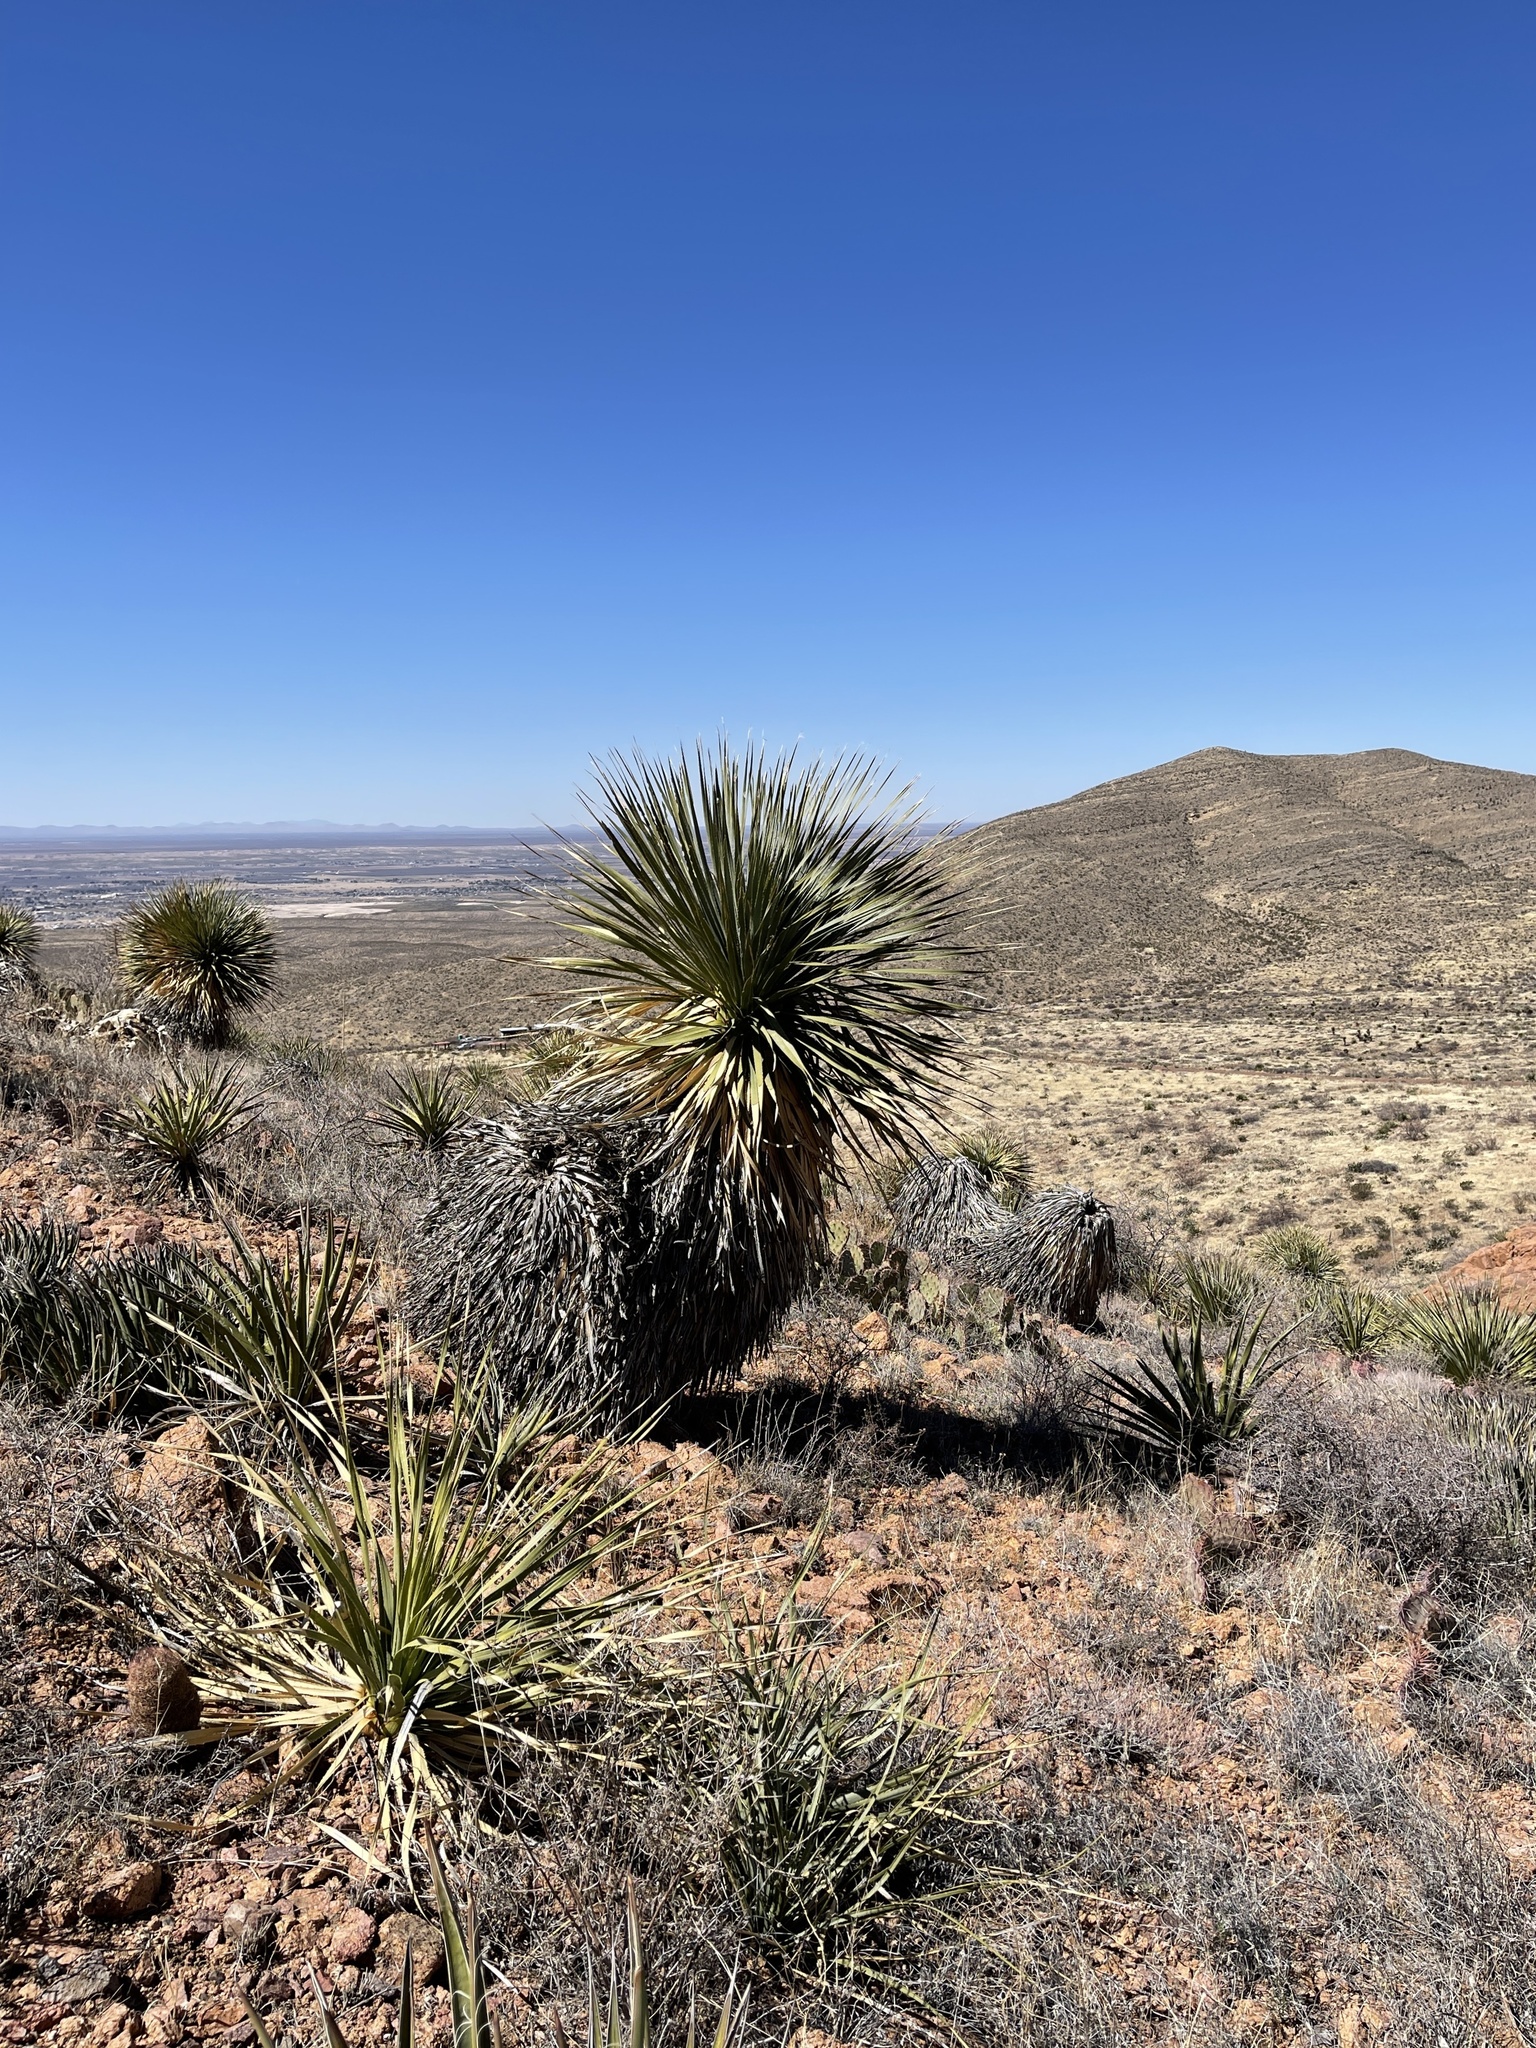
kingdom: Plantae
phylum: Tracheophyta
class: Liliopsida
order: Asparagales
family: Asparagaceae
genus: Dasylirion
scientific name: Dasylirion wheeleri
